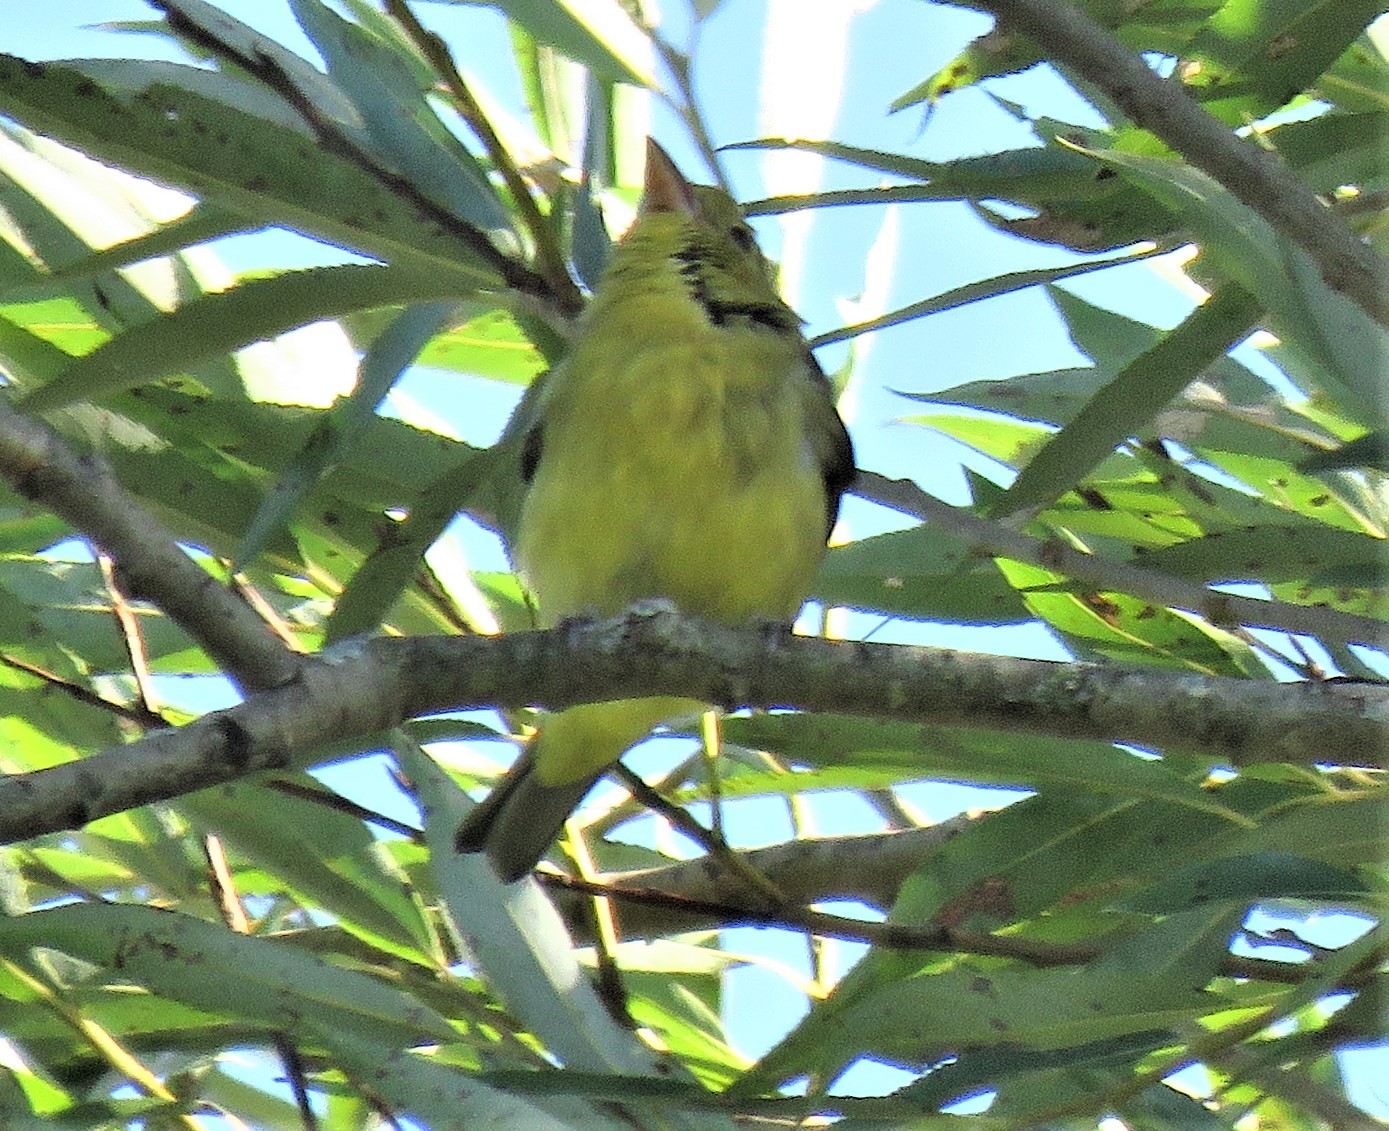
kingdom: Animalia
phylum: Chordata
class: Aves
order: Passeriformes
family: Cardinalidae
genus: Piranga
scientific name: Piranga olivacea
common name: Scarlet tanager
